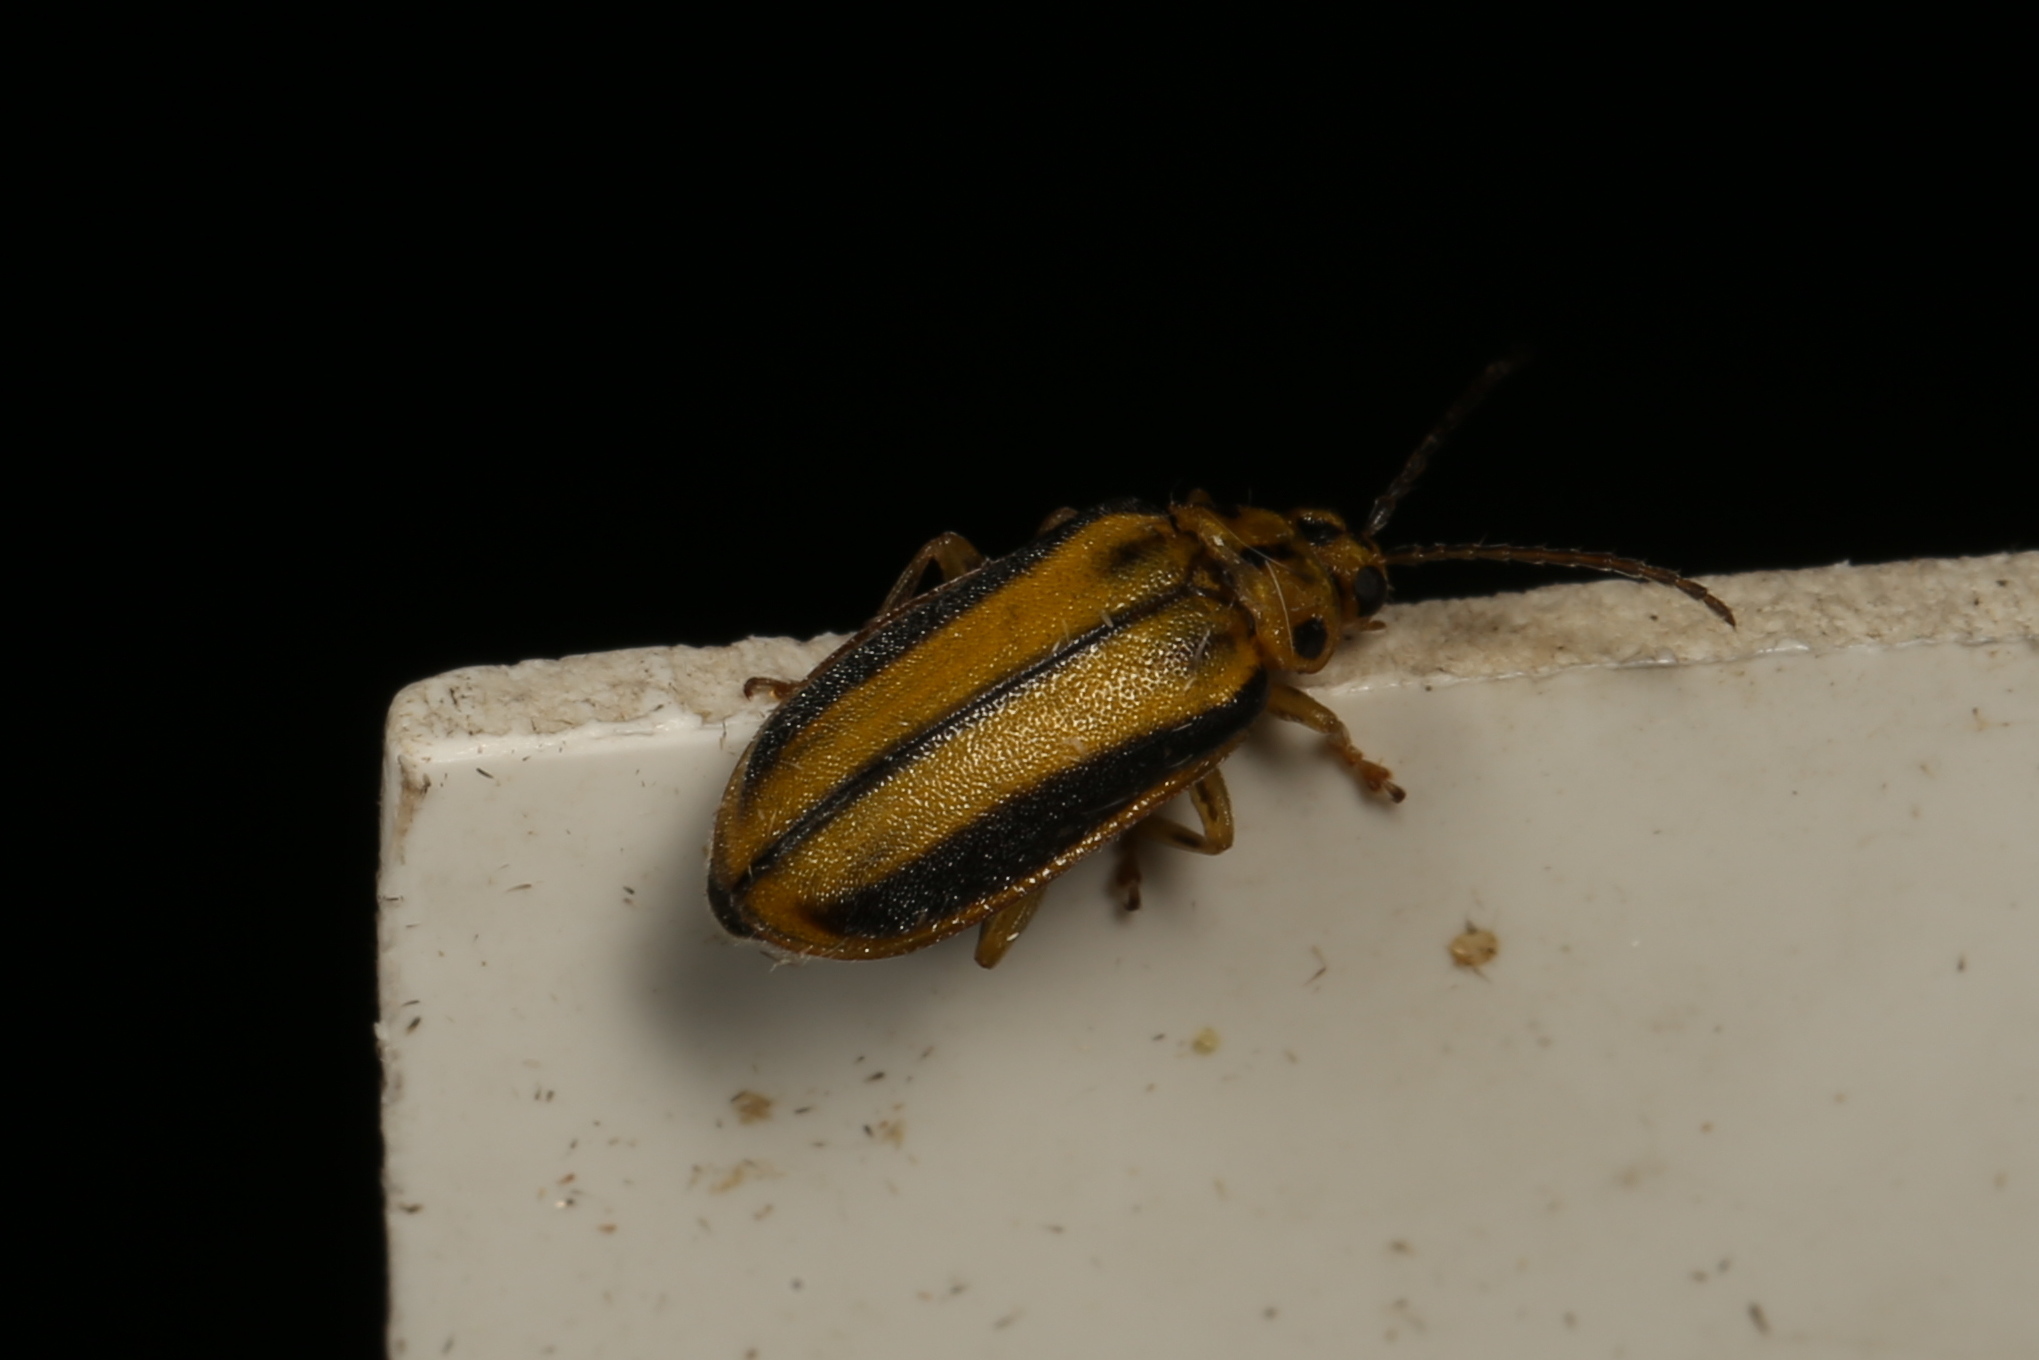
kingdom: Animalia
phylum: Arthropoda
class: Insecta
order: Coleoptera
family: Chrysomelidae
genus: Xanthogaleruca
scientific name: Xanthogaleruca luteola
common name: Elm leaf beetle
